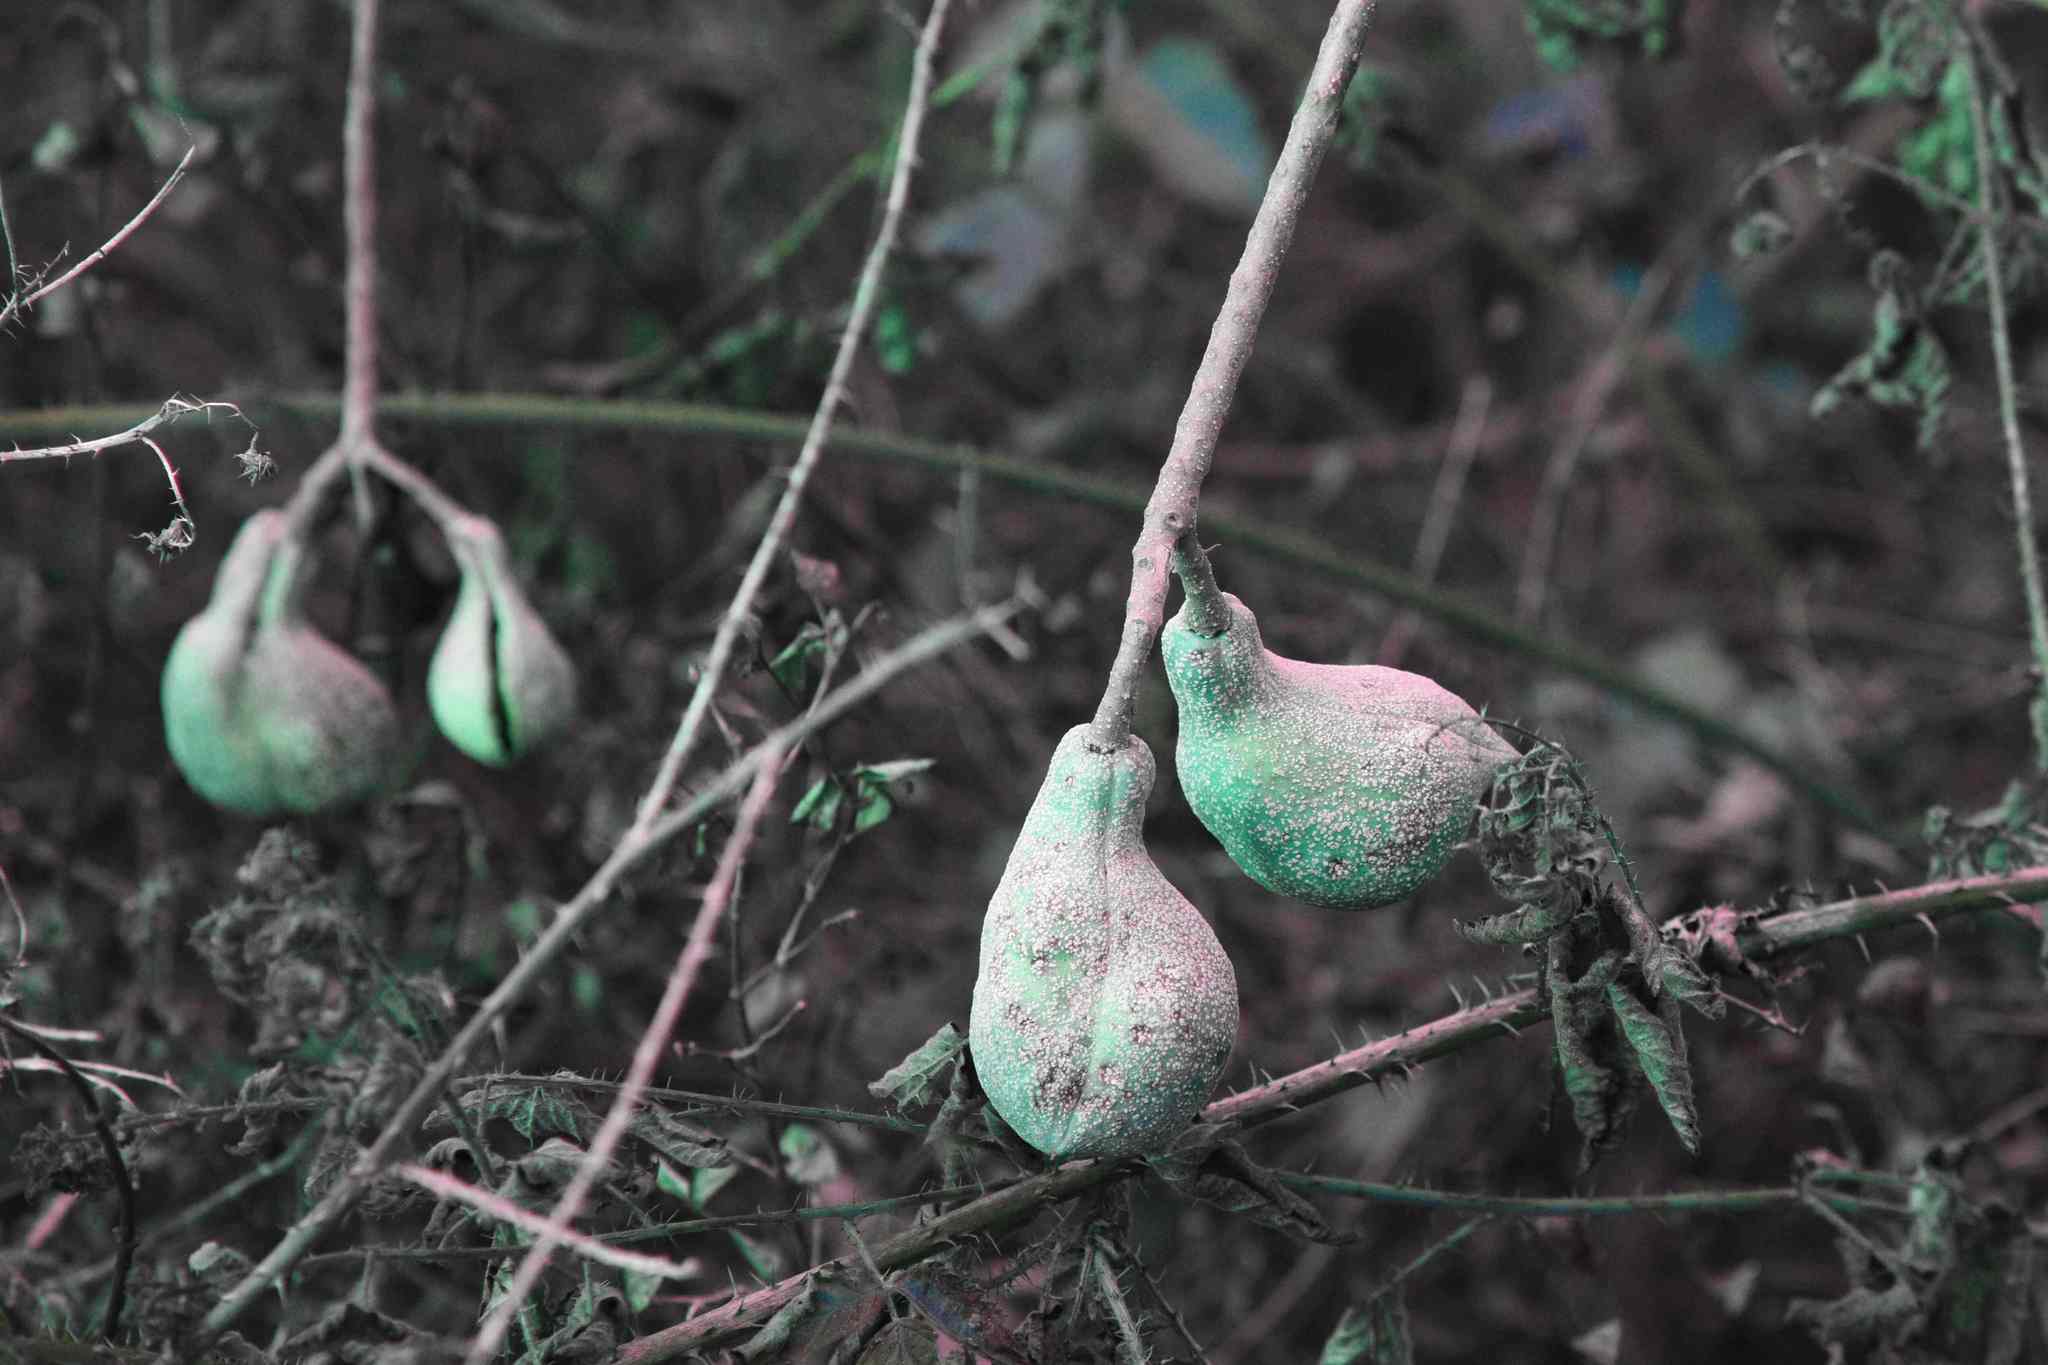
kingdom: Plantae
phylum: Tracheophyta
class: Magnoliopsida
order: Sapindales
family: Sapindaceae
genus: Aesculus
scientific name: Aesculus californica
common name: California buckeye
